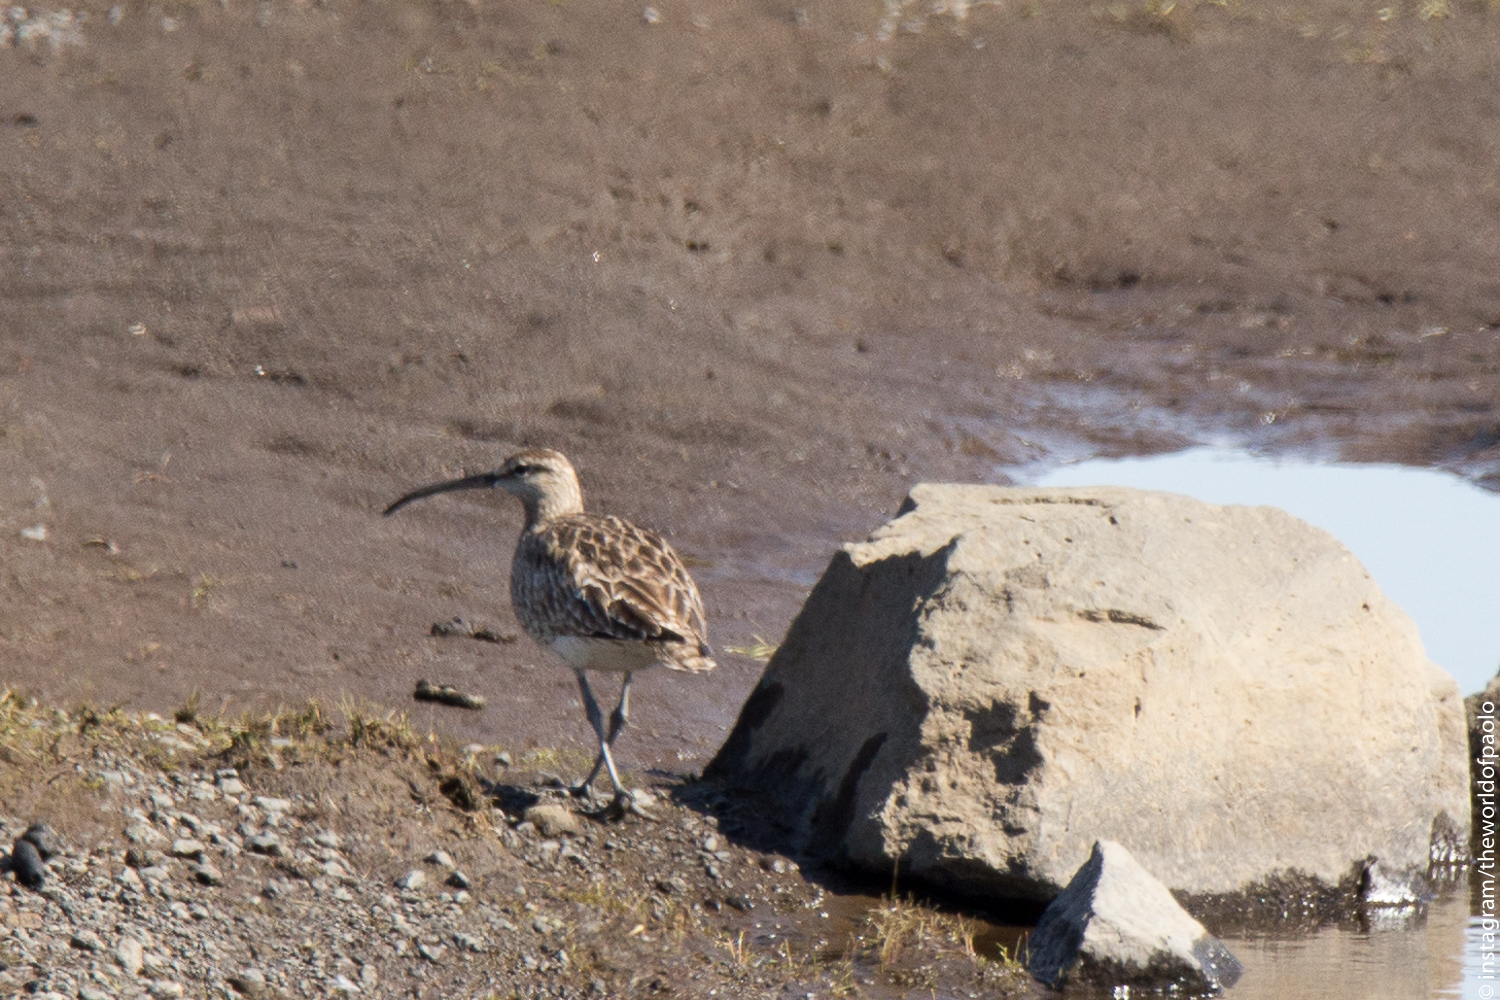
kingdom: Animalia
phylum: Chordata
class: Aves
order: Charadriiformes
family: Scolopacidae
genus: Numenius
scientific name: Numenius phaeopus
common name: Whimbrel
